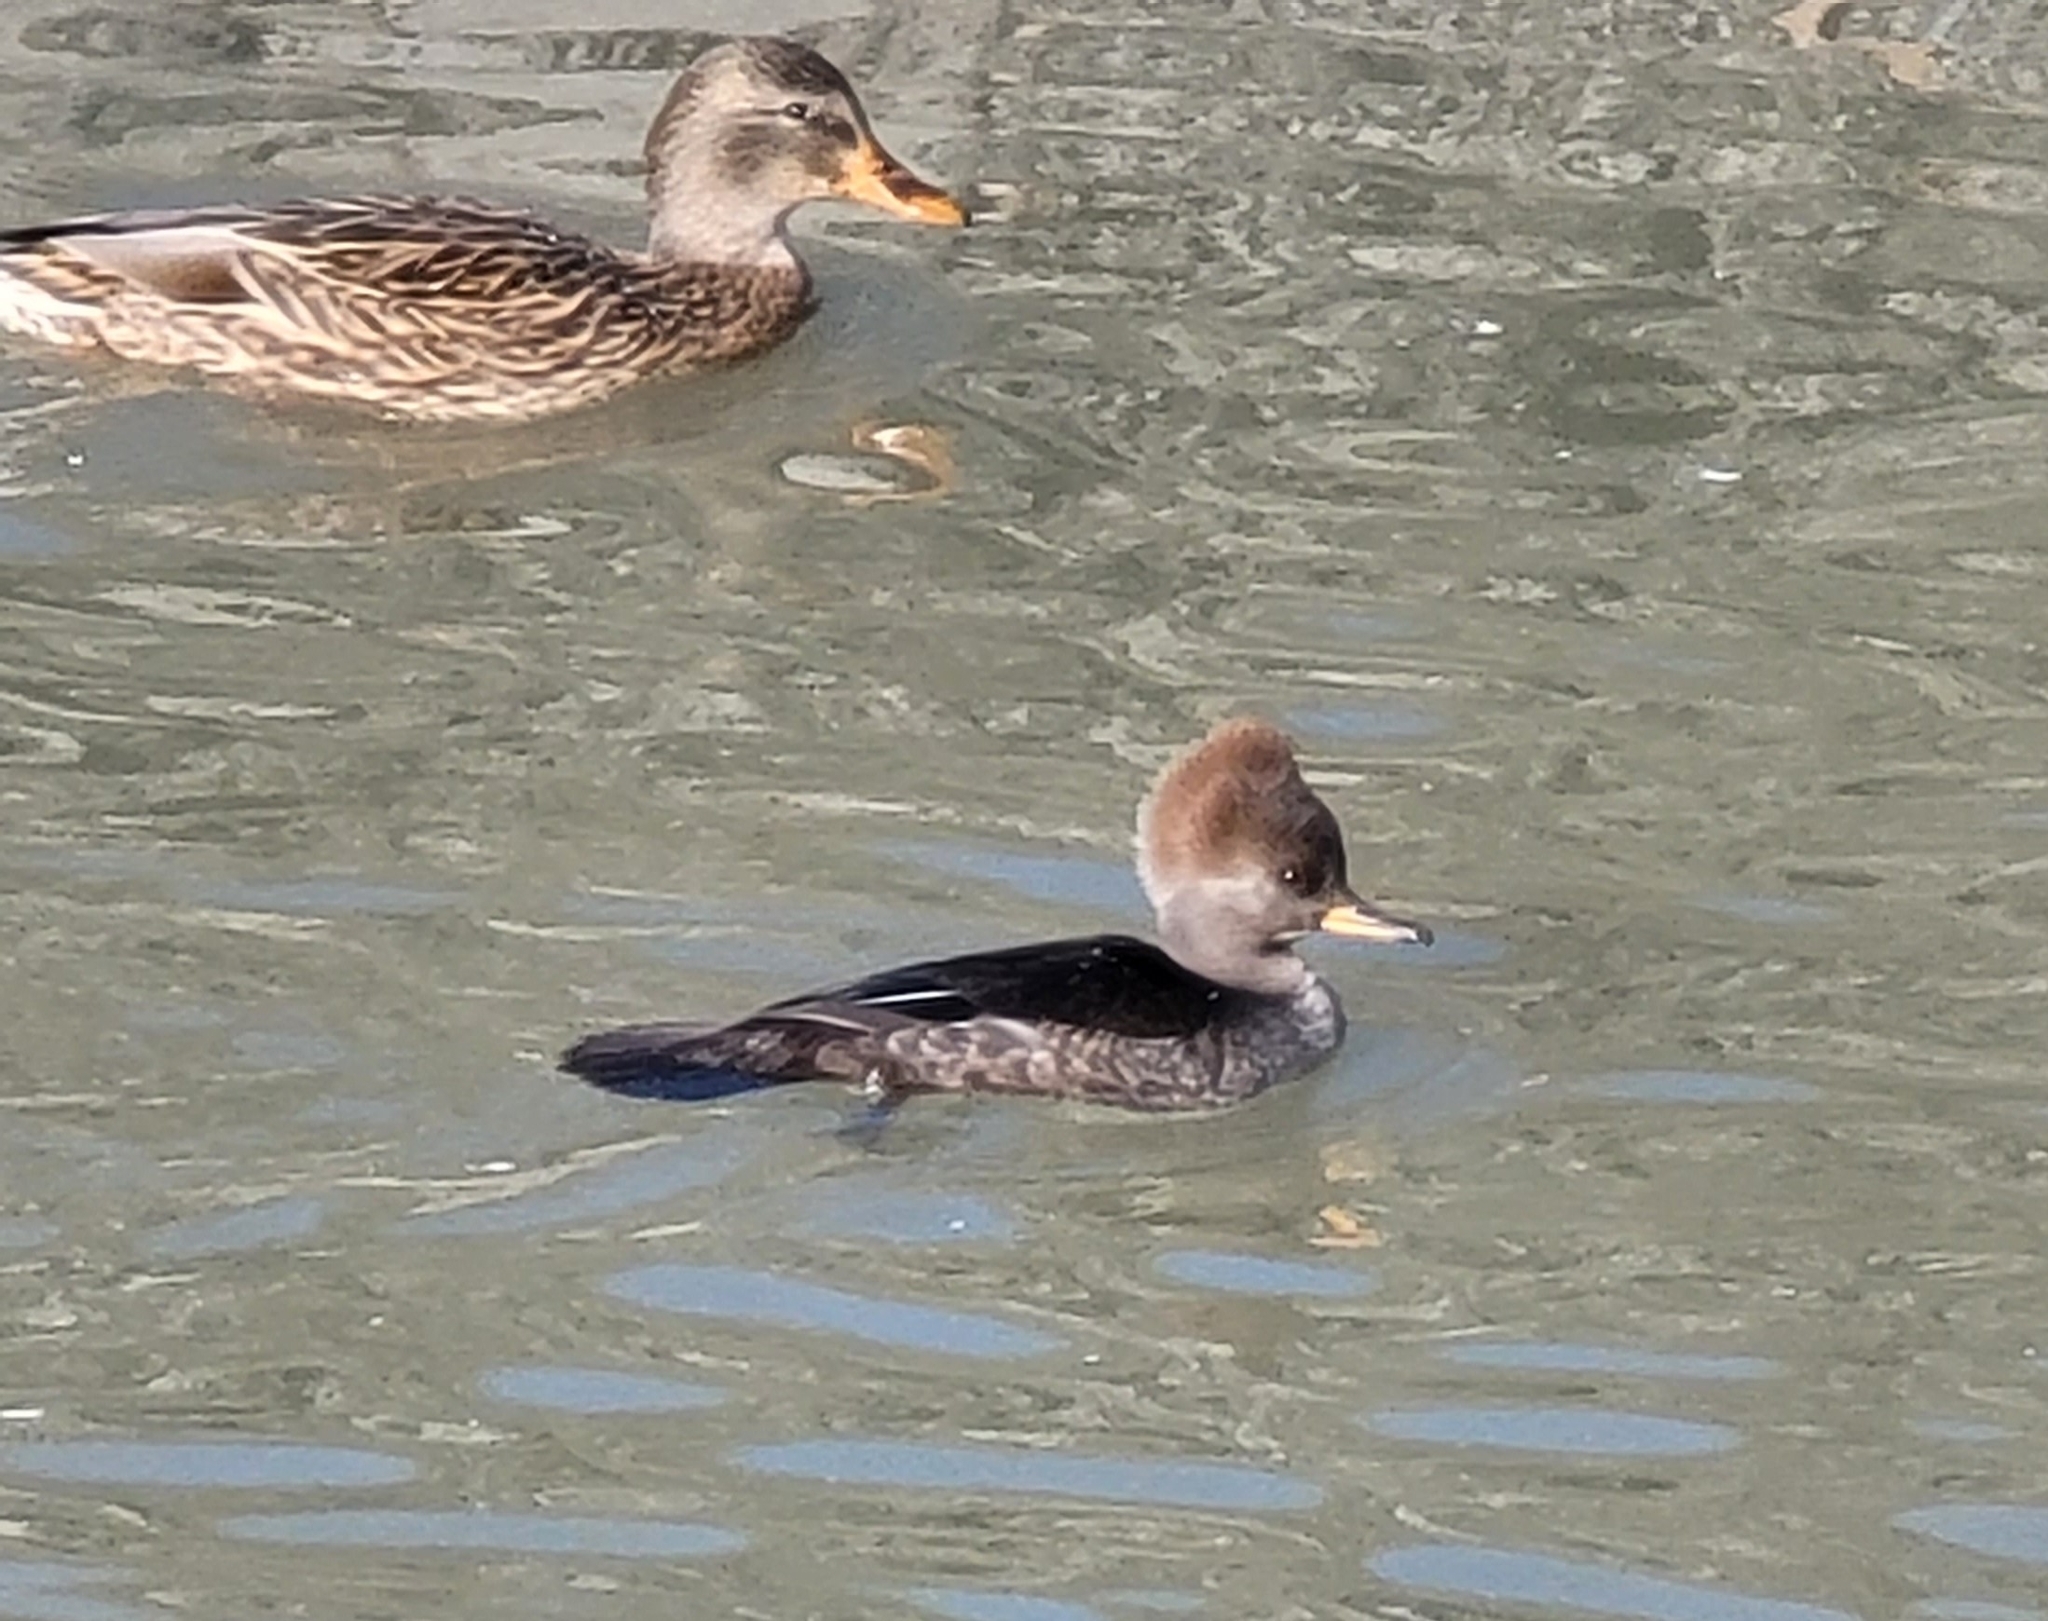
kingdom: Animalia
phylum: Chordata
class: Aves
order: Anseriformes
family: Anatidae
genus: Lophodytes
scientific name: Lophodytes cucullatus
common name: Hooded merganser
